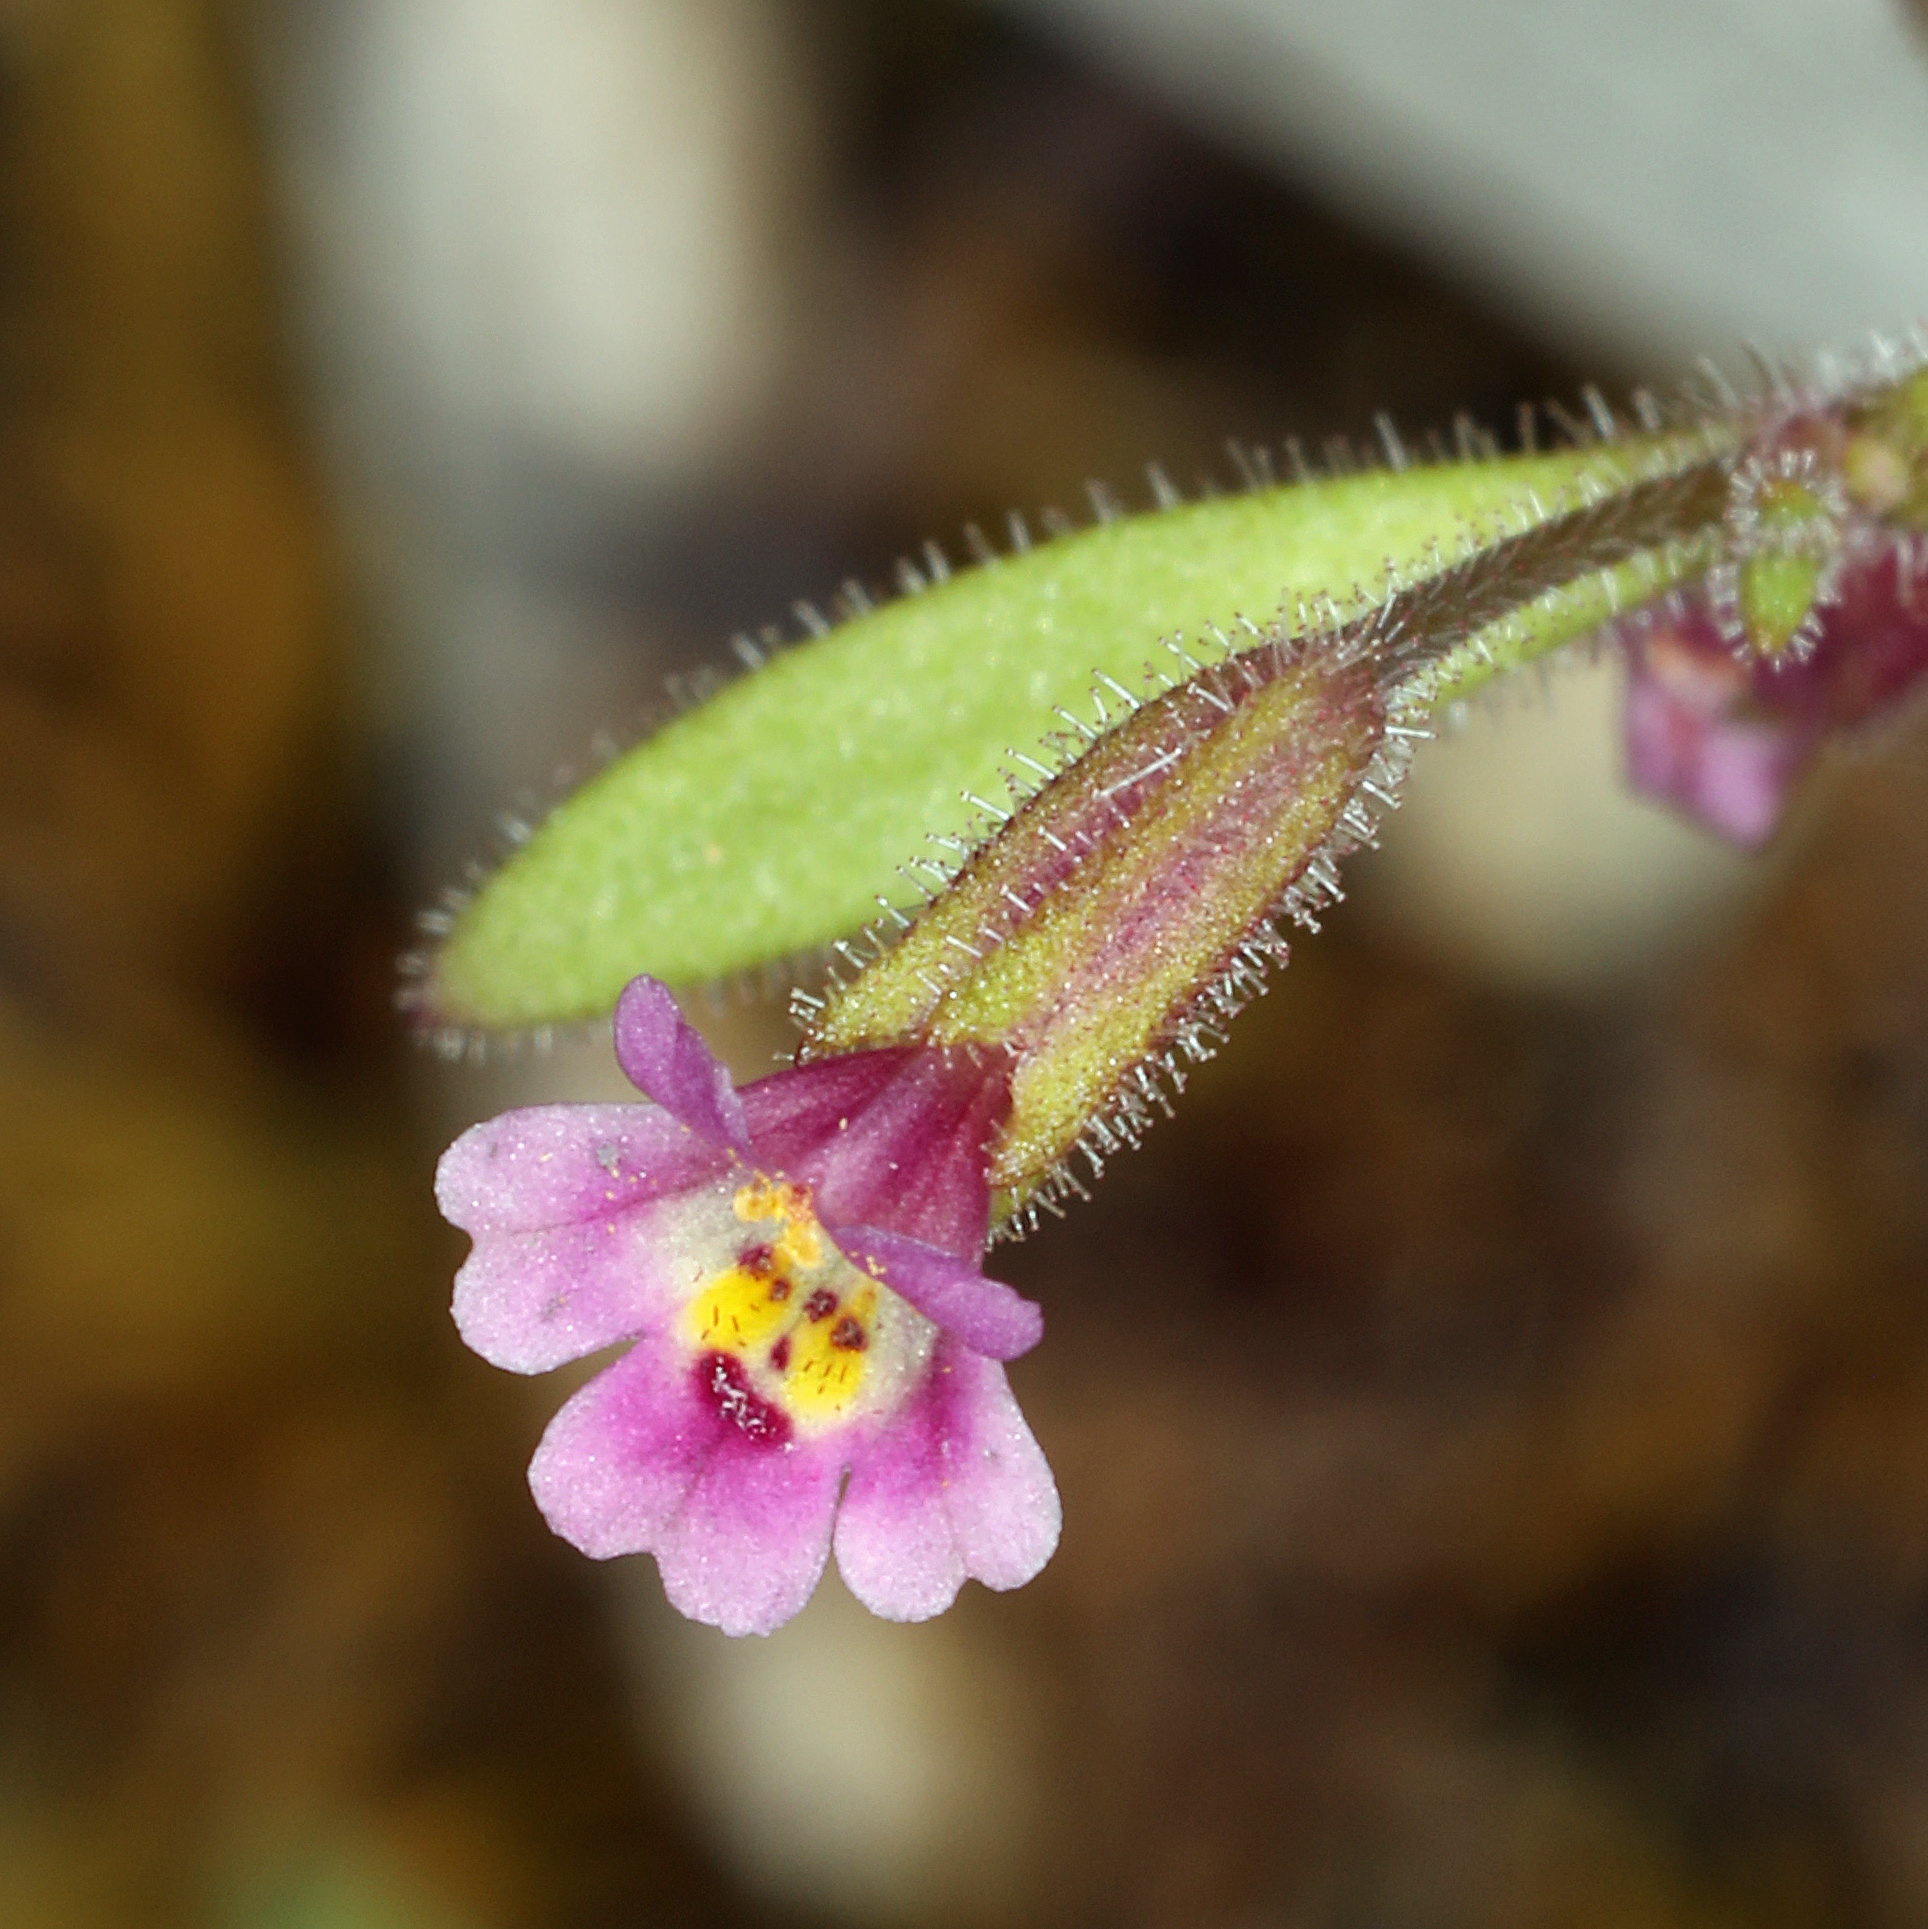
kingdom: Plantae
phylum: Tracheophyta
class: Magnoliopsida
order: Lamiales
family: Phrymaceae
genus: Erythranthe
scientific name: Erythranthe breweri
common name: Brewer's monkeyflower
